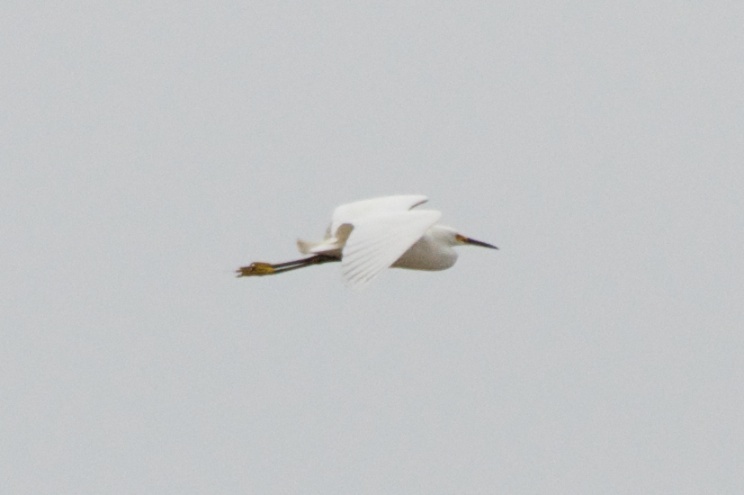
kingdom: Animalia
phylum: Chordata
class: Aves
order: Pelecaniformes
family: Ardeidae
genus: Egretta
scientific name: Egretta thula
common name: Snowy egret
